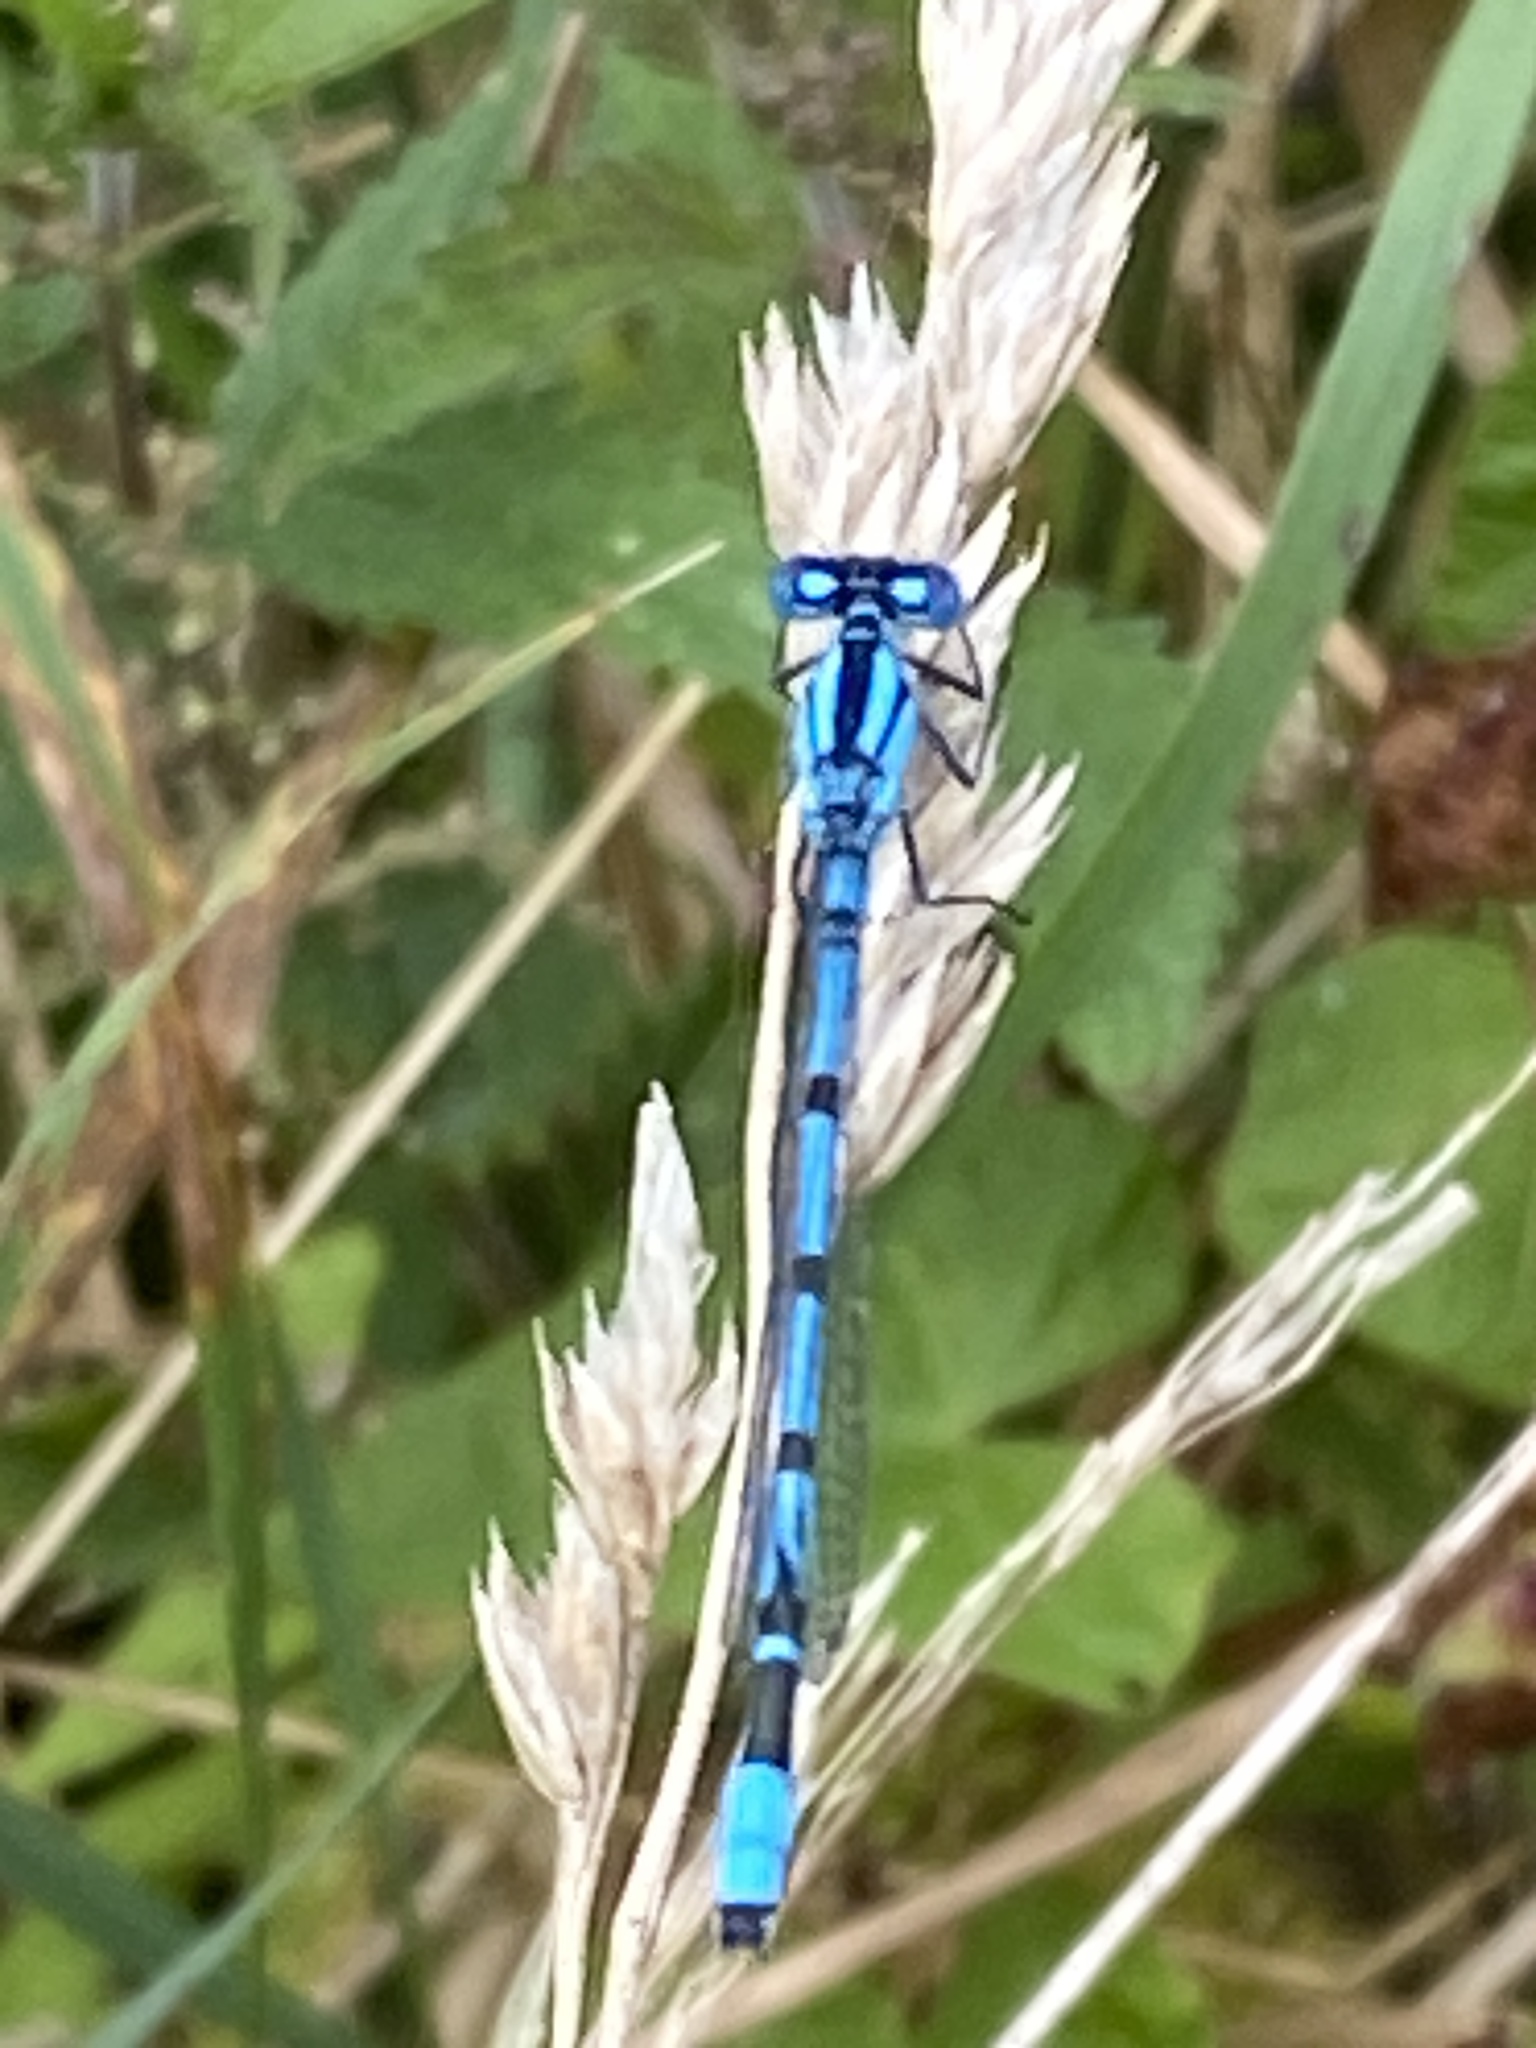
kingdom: Animalia
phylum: Arthropoda
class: Insecta
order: Odonata
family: Coenagrionidae
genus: Enallagma
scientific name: Enallagma cyathigerum
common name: Common blue damselfly
